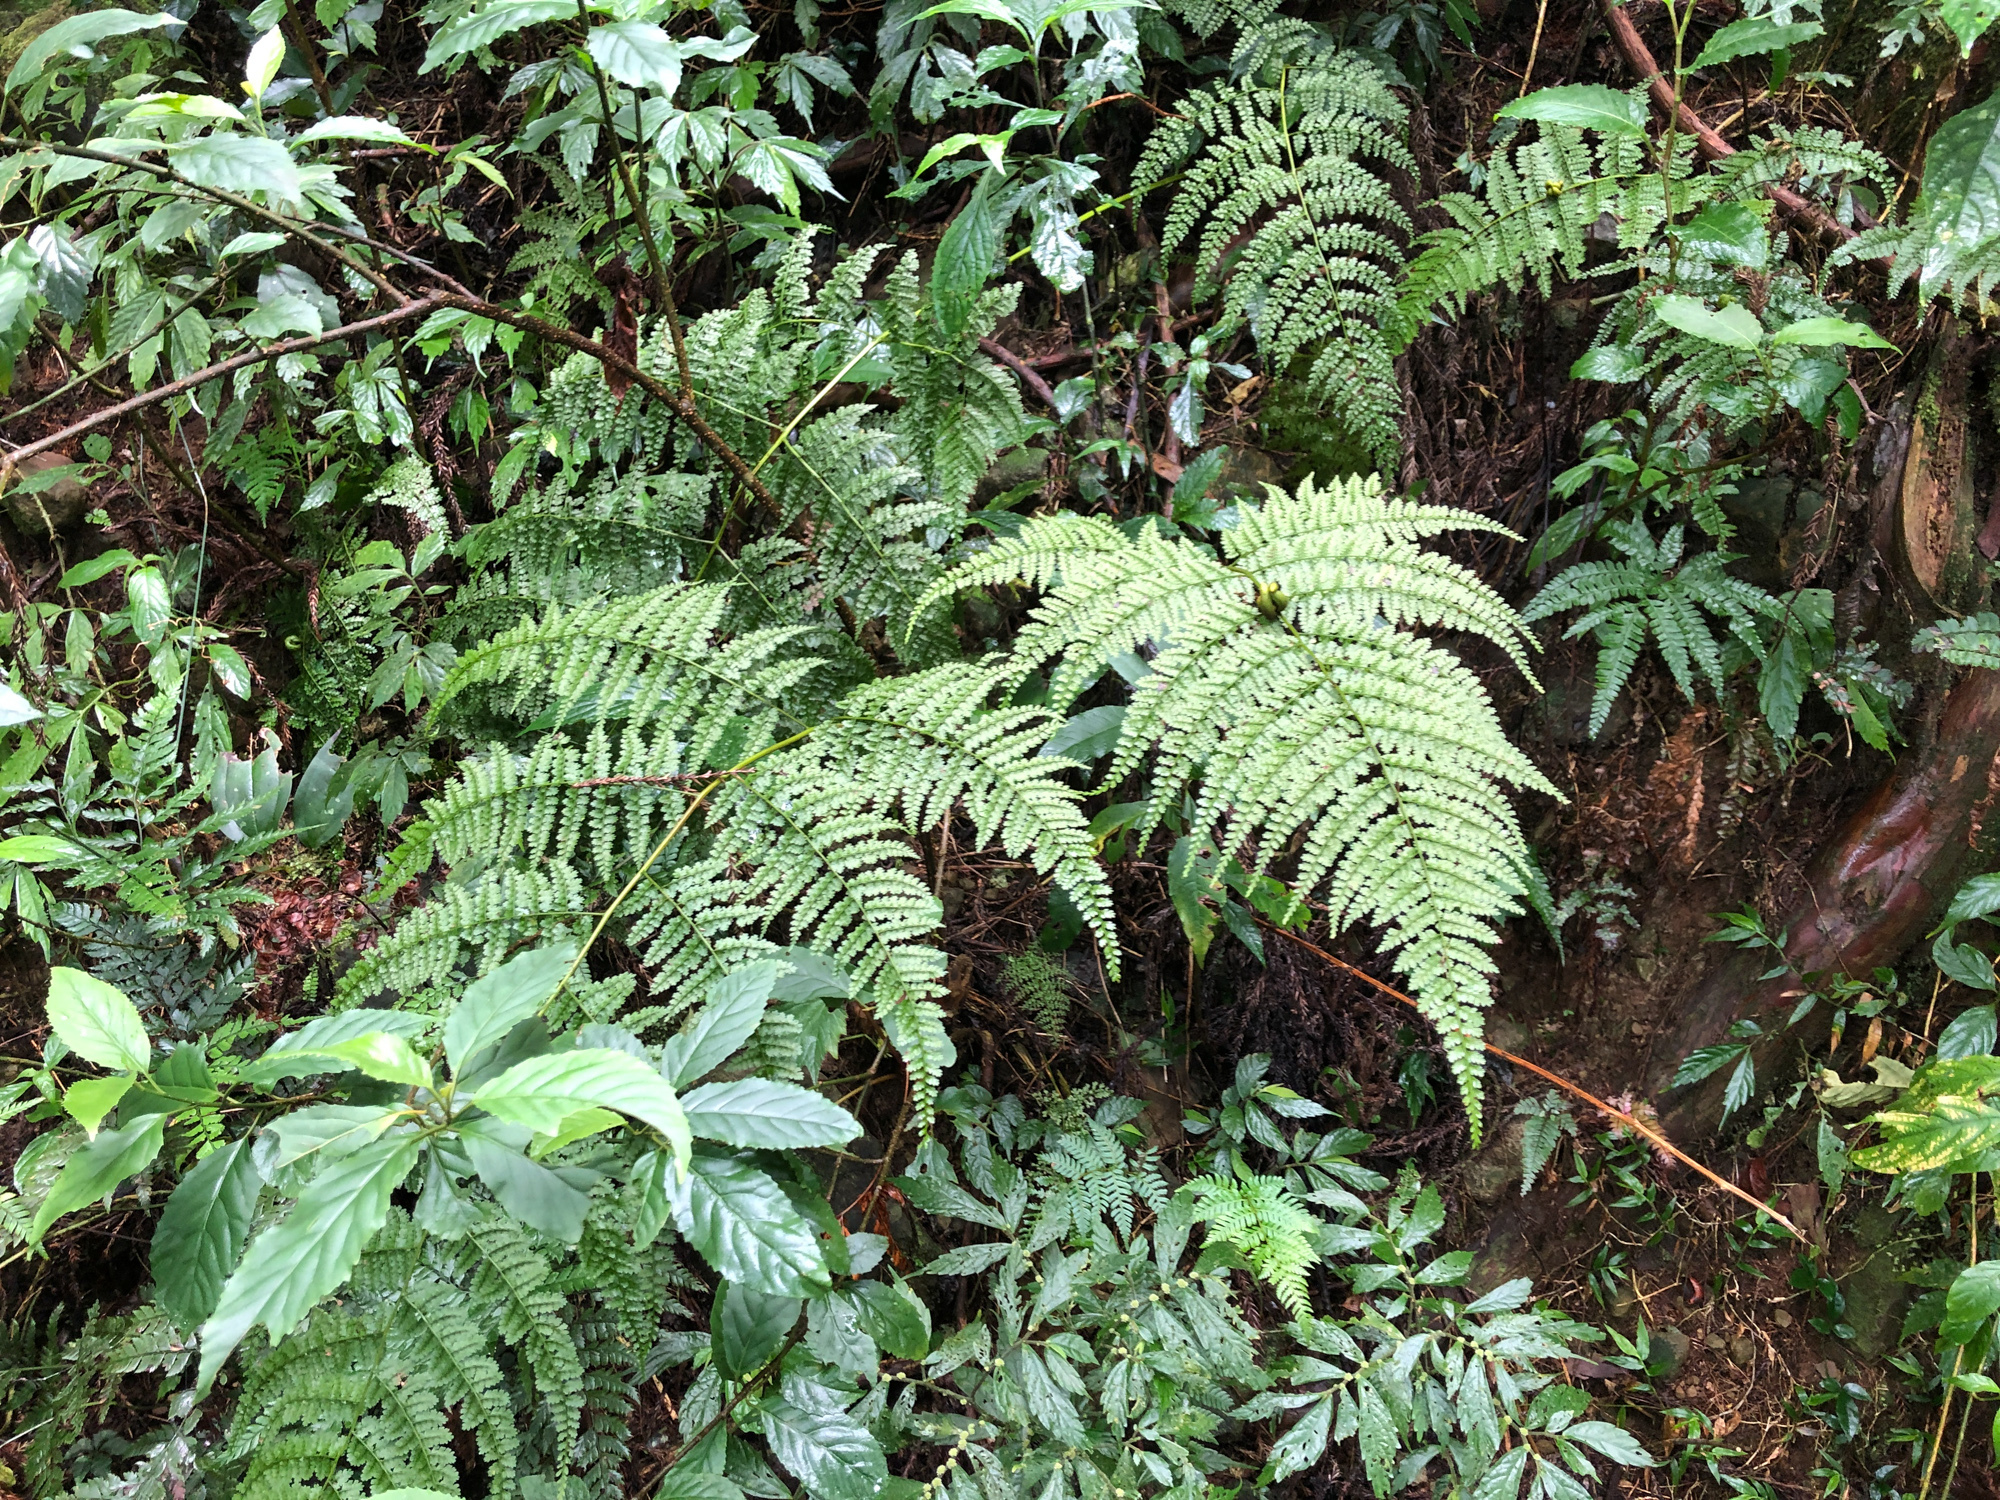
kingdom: Plantae
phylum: Tracheophyta
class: Polypodiopsida
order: Polypodiales
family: Dennstaedtiaceae
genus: Monachosorum
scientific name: Monachosorum henryi
